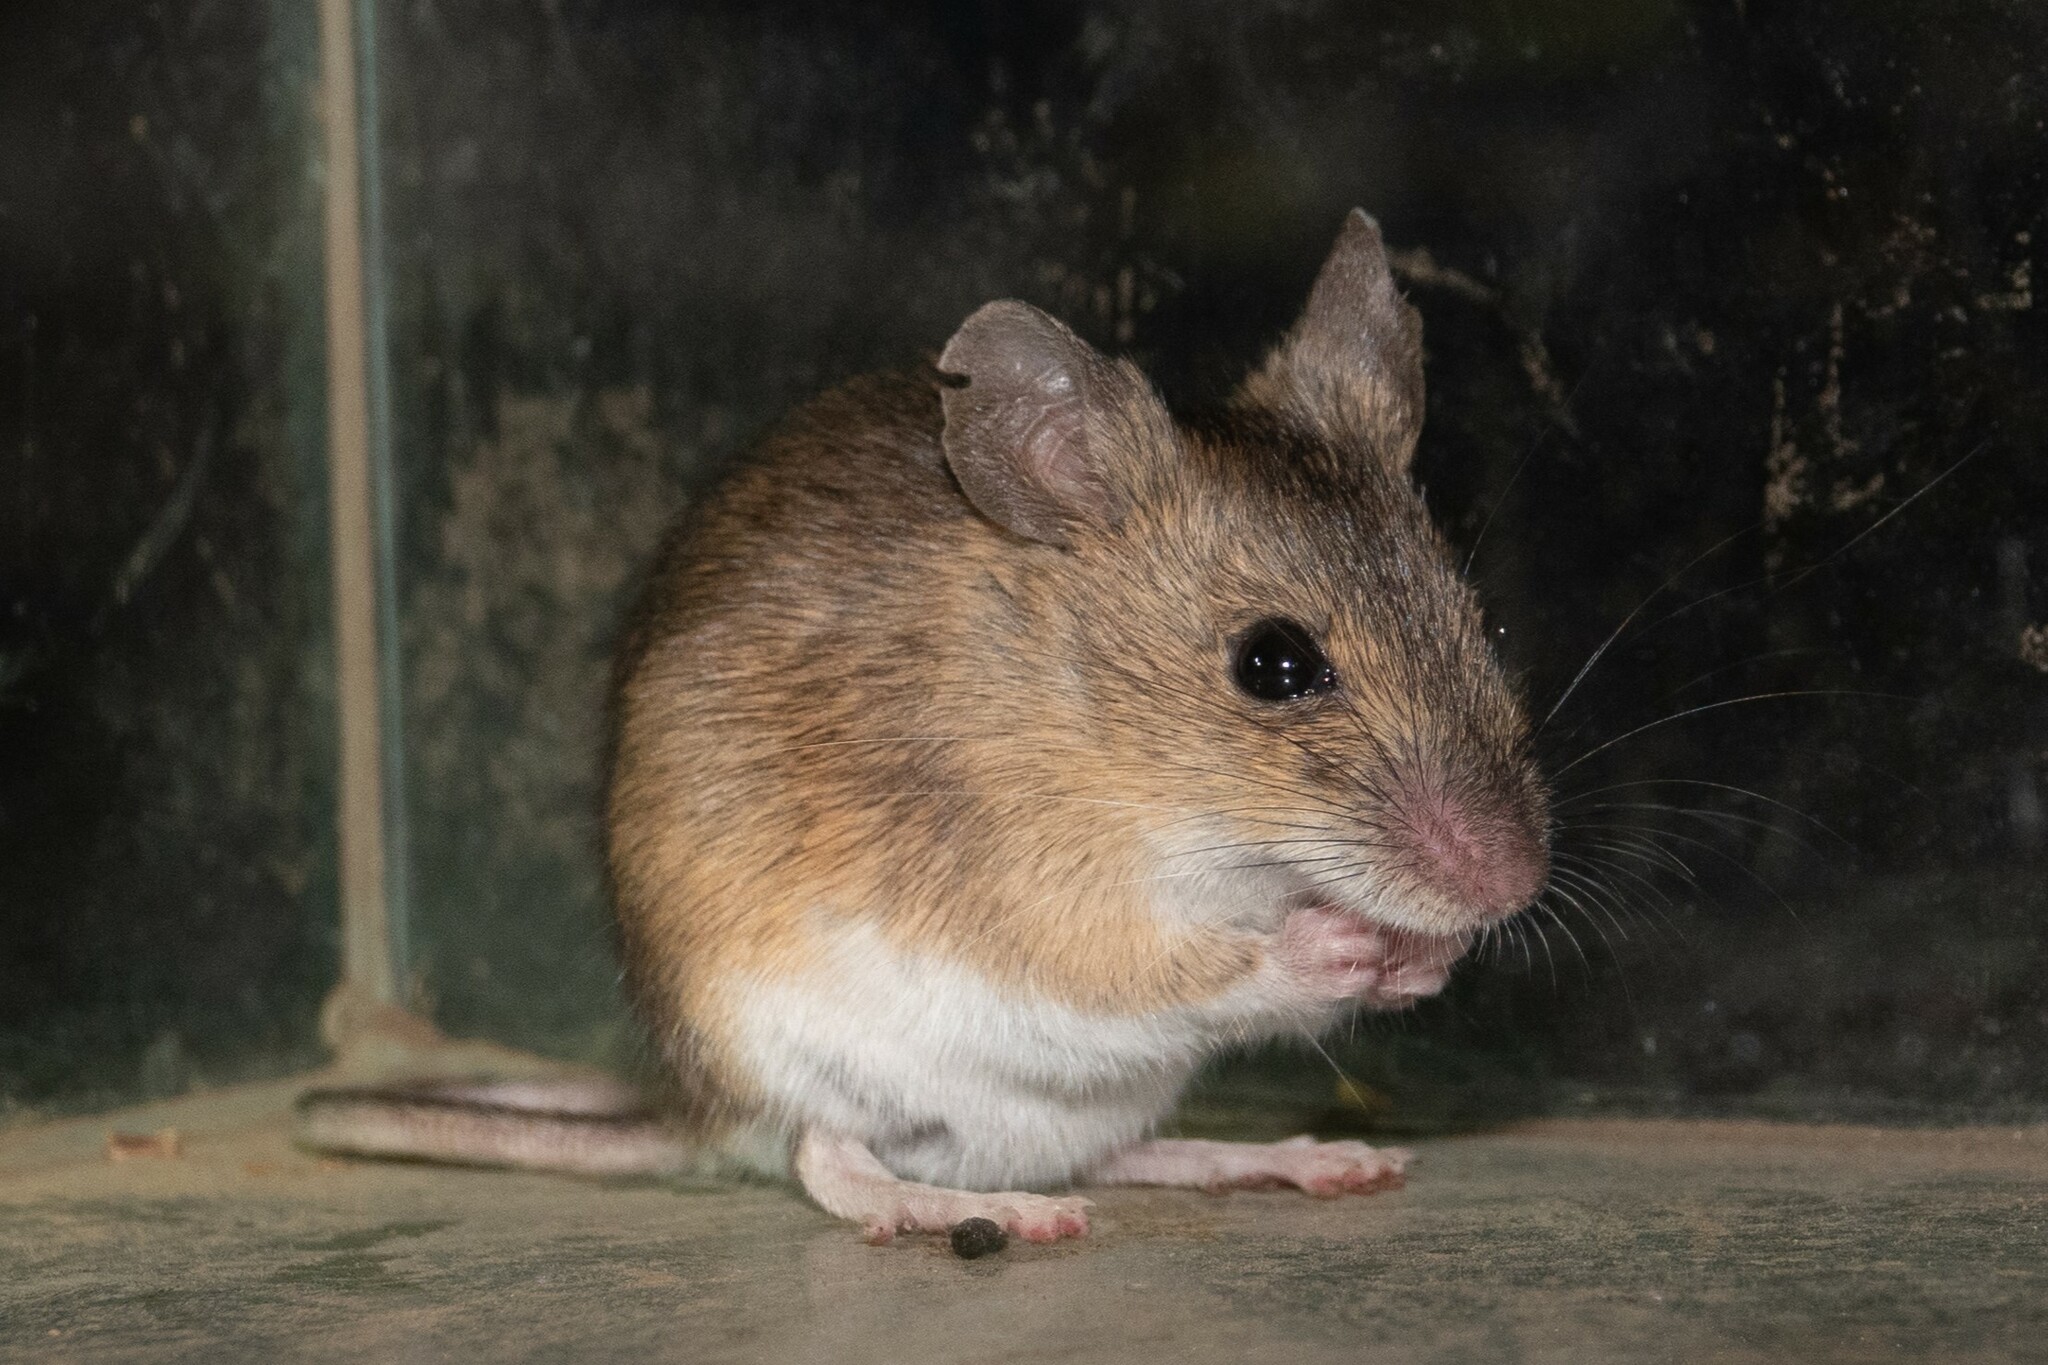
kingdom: Animalia
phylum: Chordata
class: Mammalia
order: Rodentia
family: Muridae
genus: Apodemus
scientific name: Apodemus sylvaticus
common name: Wood mouse
